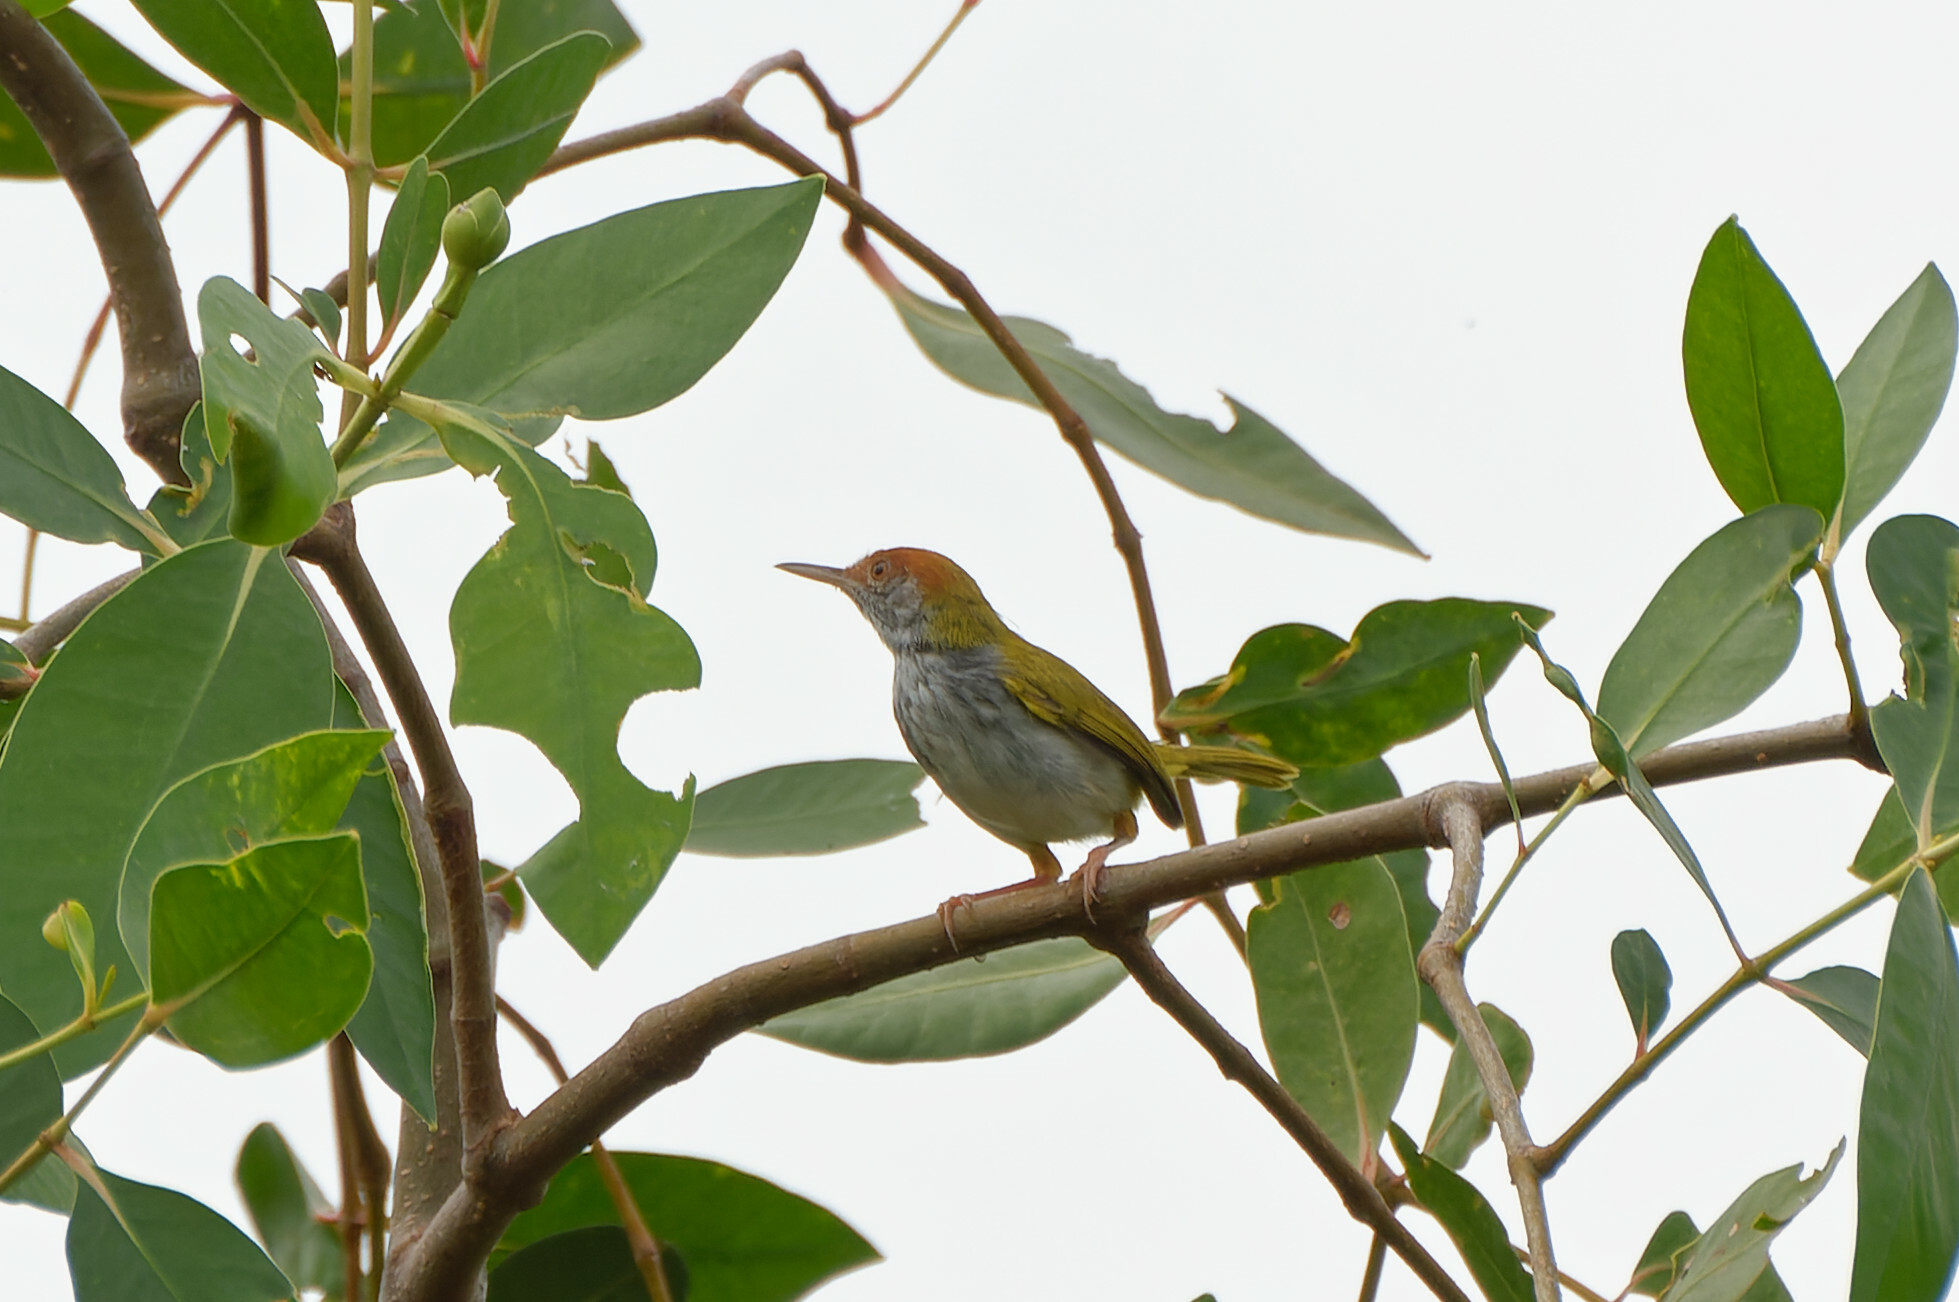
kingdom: Animalia
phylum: Chordata
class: Aves
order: Passeriformes
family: Cisticolidae
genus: Orthotomus
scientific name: Orthotomus atrogularis
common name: Dark-necked tailorbird
